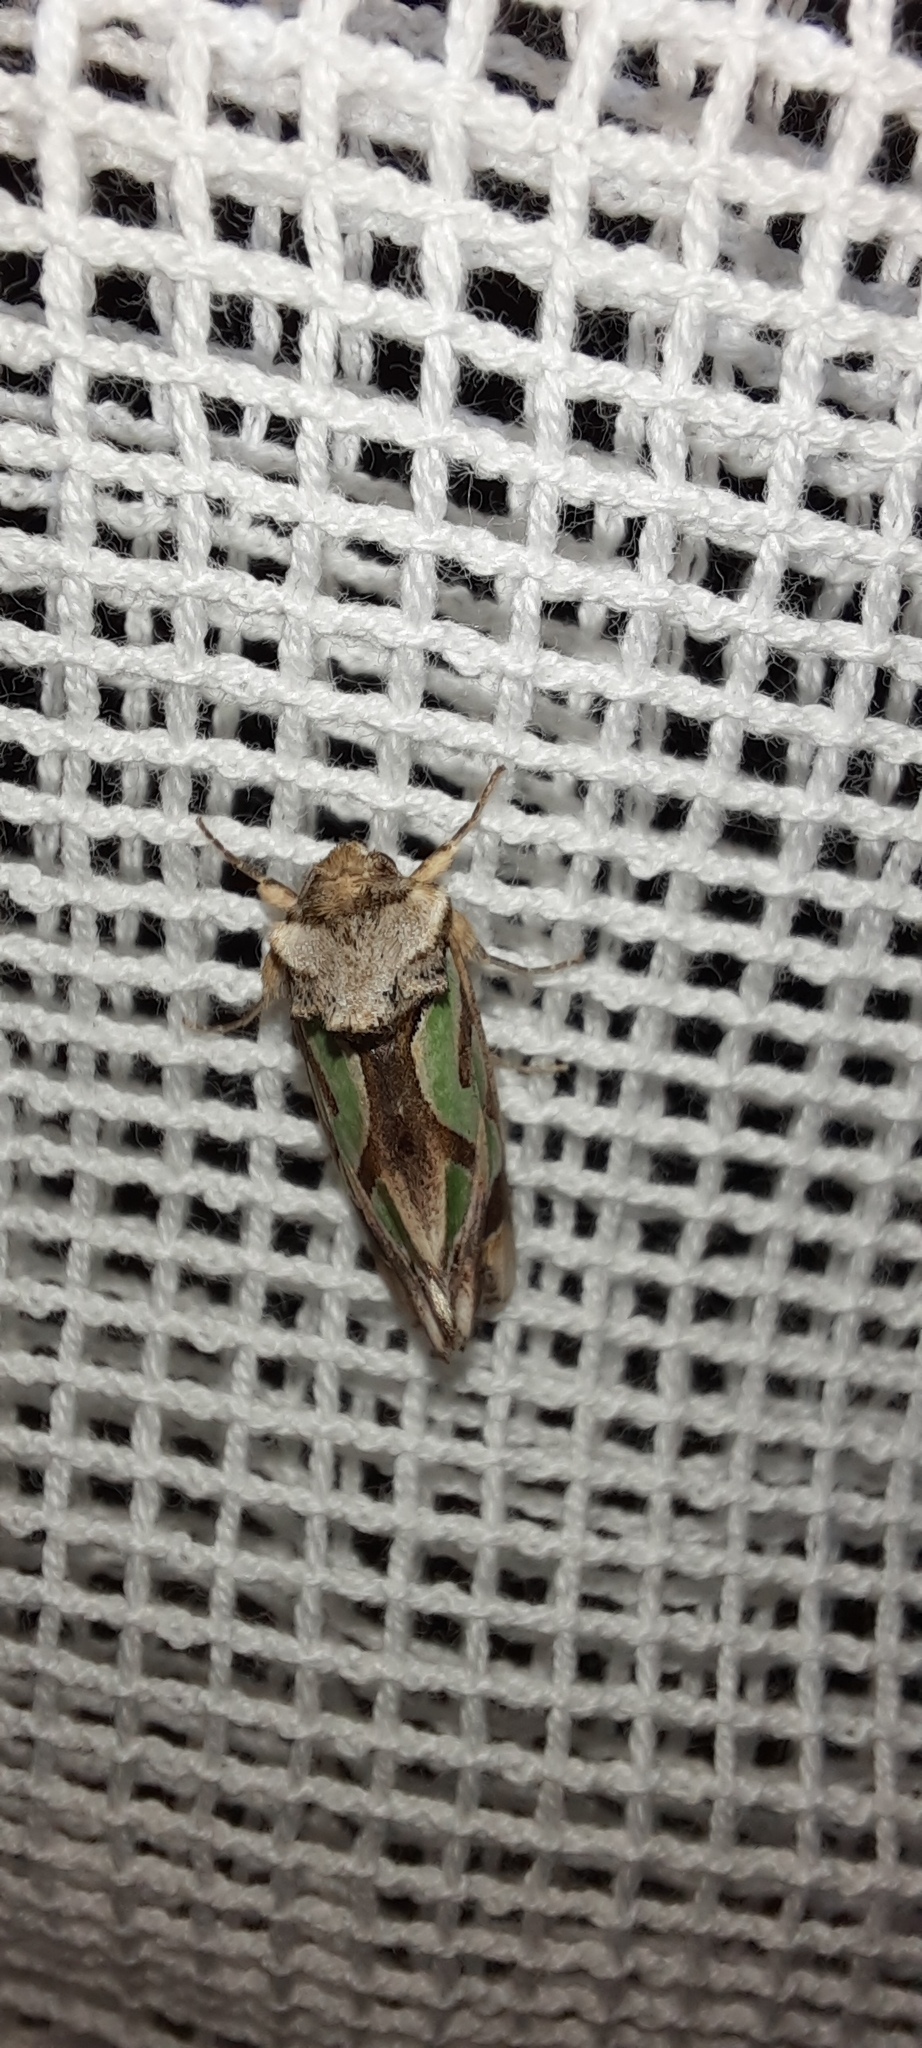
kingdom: Animalia
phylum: Arthropoda
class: Insecta
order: Lepidoptera
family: Noctuidae
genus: Cosmodes
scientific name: Cosmodes elegans
